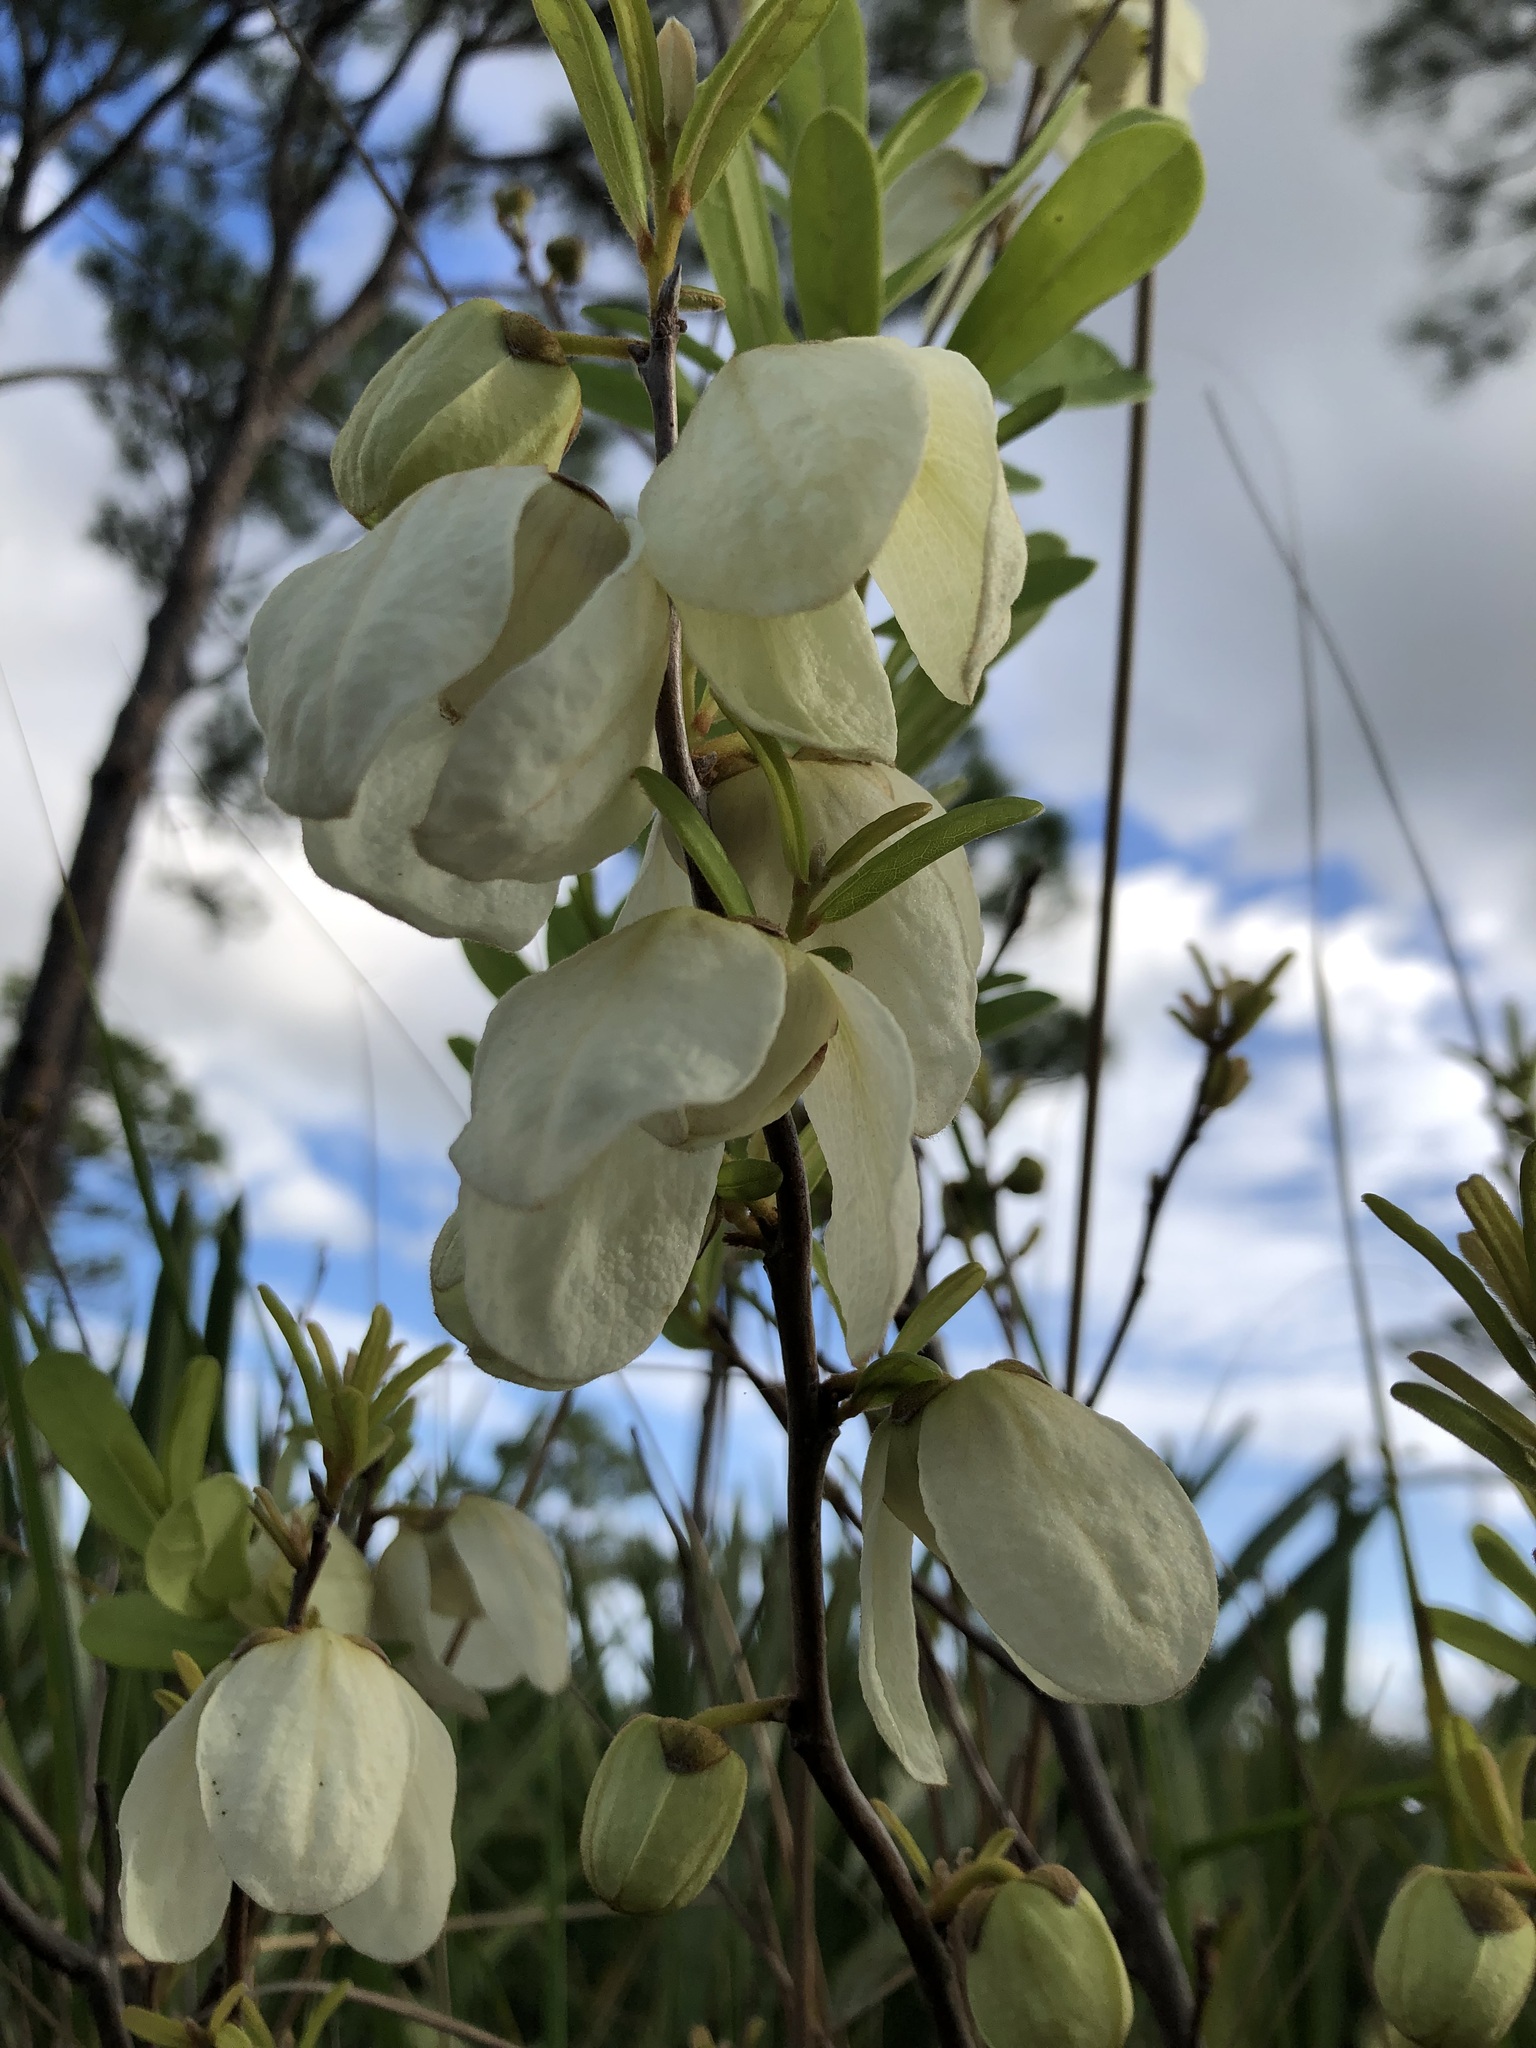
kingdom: Plantae
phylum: Tracheophyta
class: Magnoliopsida
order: Magnoliales
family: Annonaceae
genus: Asimina
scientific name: Asimina reticulata
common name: Flag pawpaw
